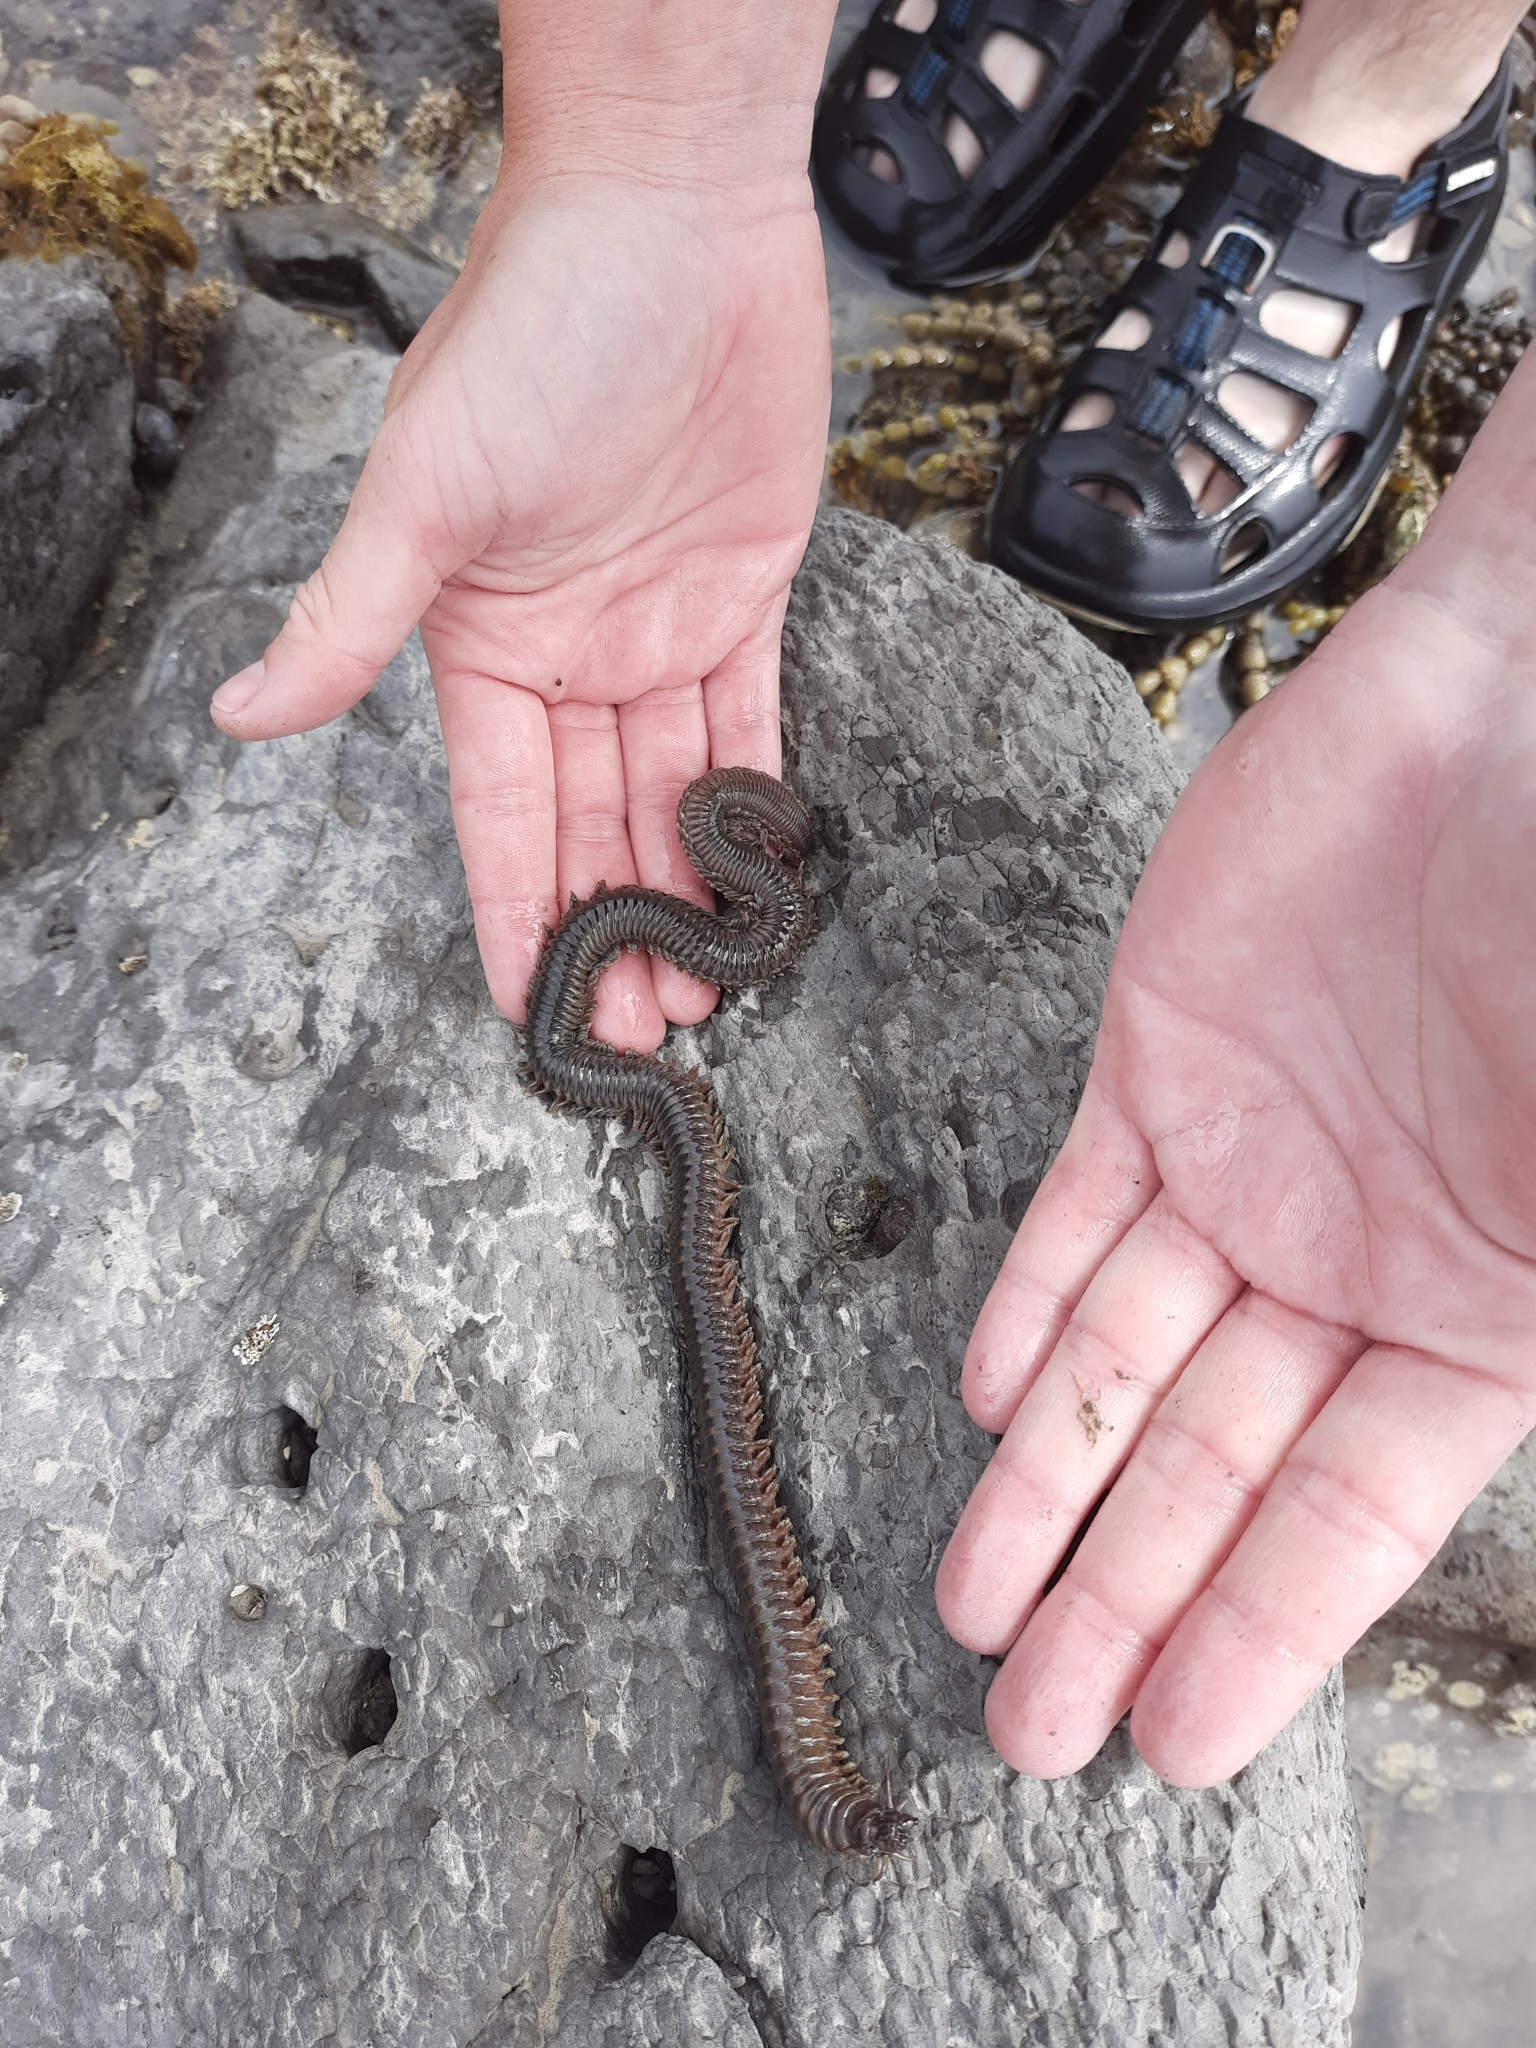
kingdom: Animalia
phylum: Annelida
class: Polychaeta
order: Phyllodocida
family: Nereididae
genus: Perinereis
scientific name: Perinereis amblyodonta
